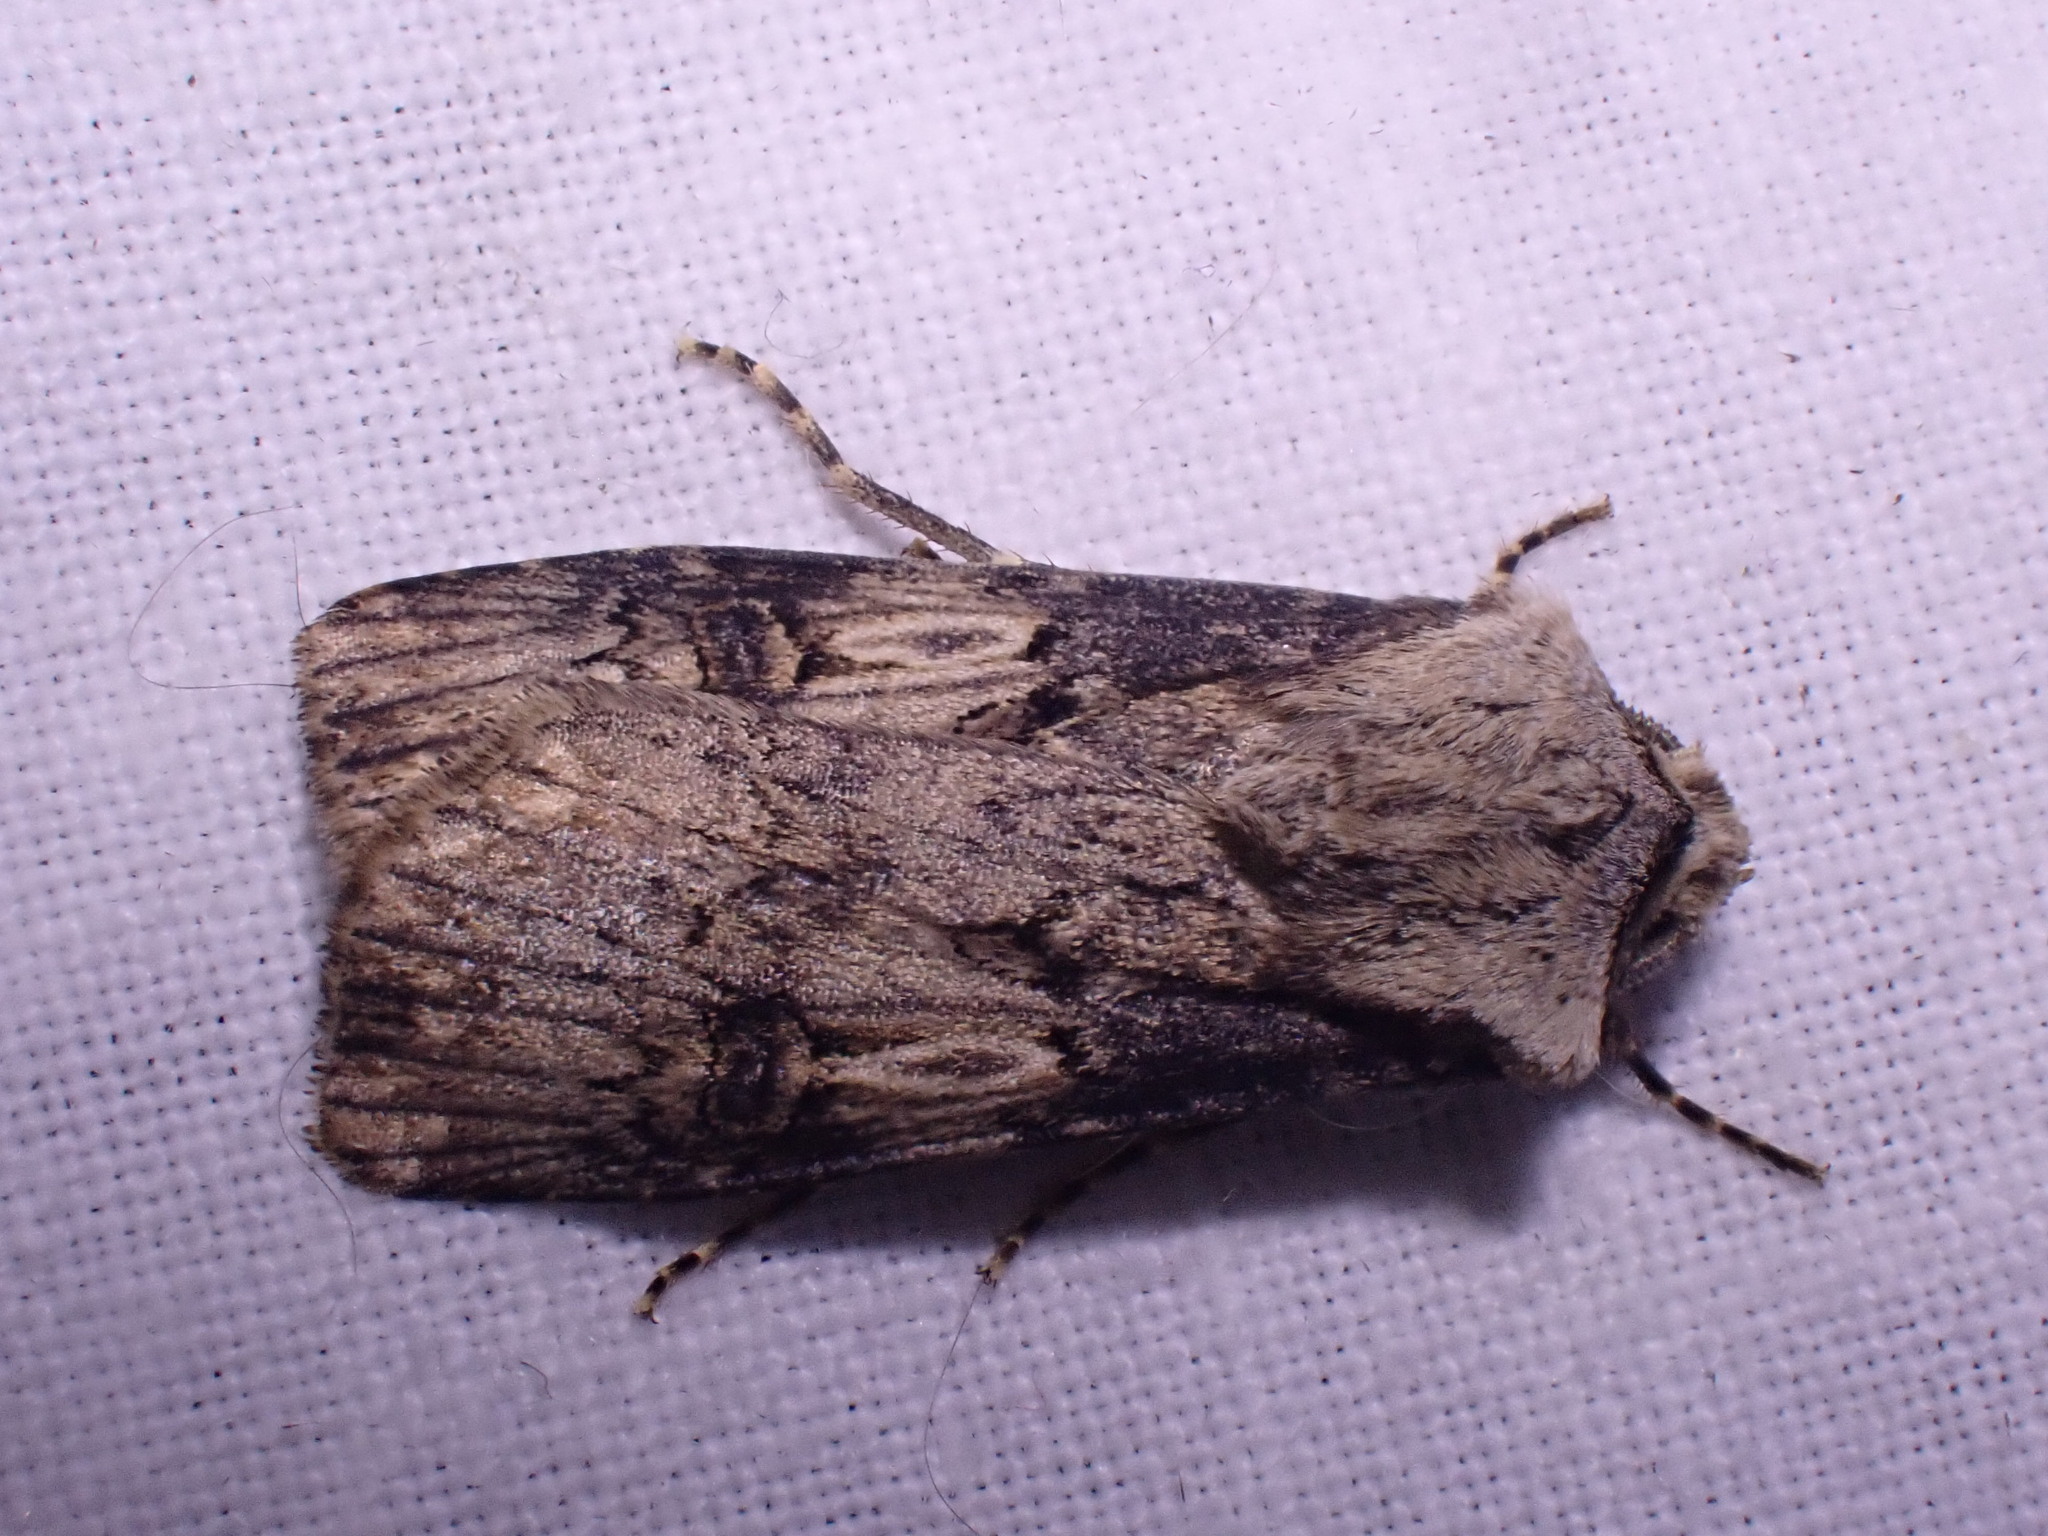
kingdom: Animalia
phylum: Arthropoda
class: Insecta
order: Lepidoptera
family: Noctuidae
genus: Agrotis
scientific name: Agrotis puta
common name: Shuttle-shaped dart
